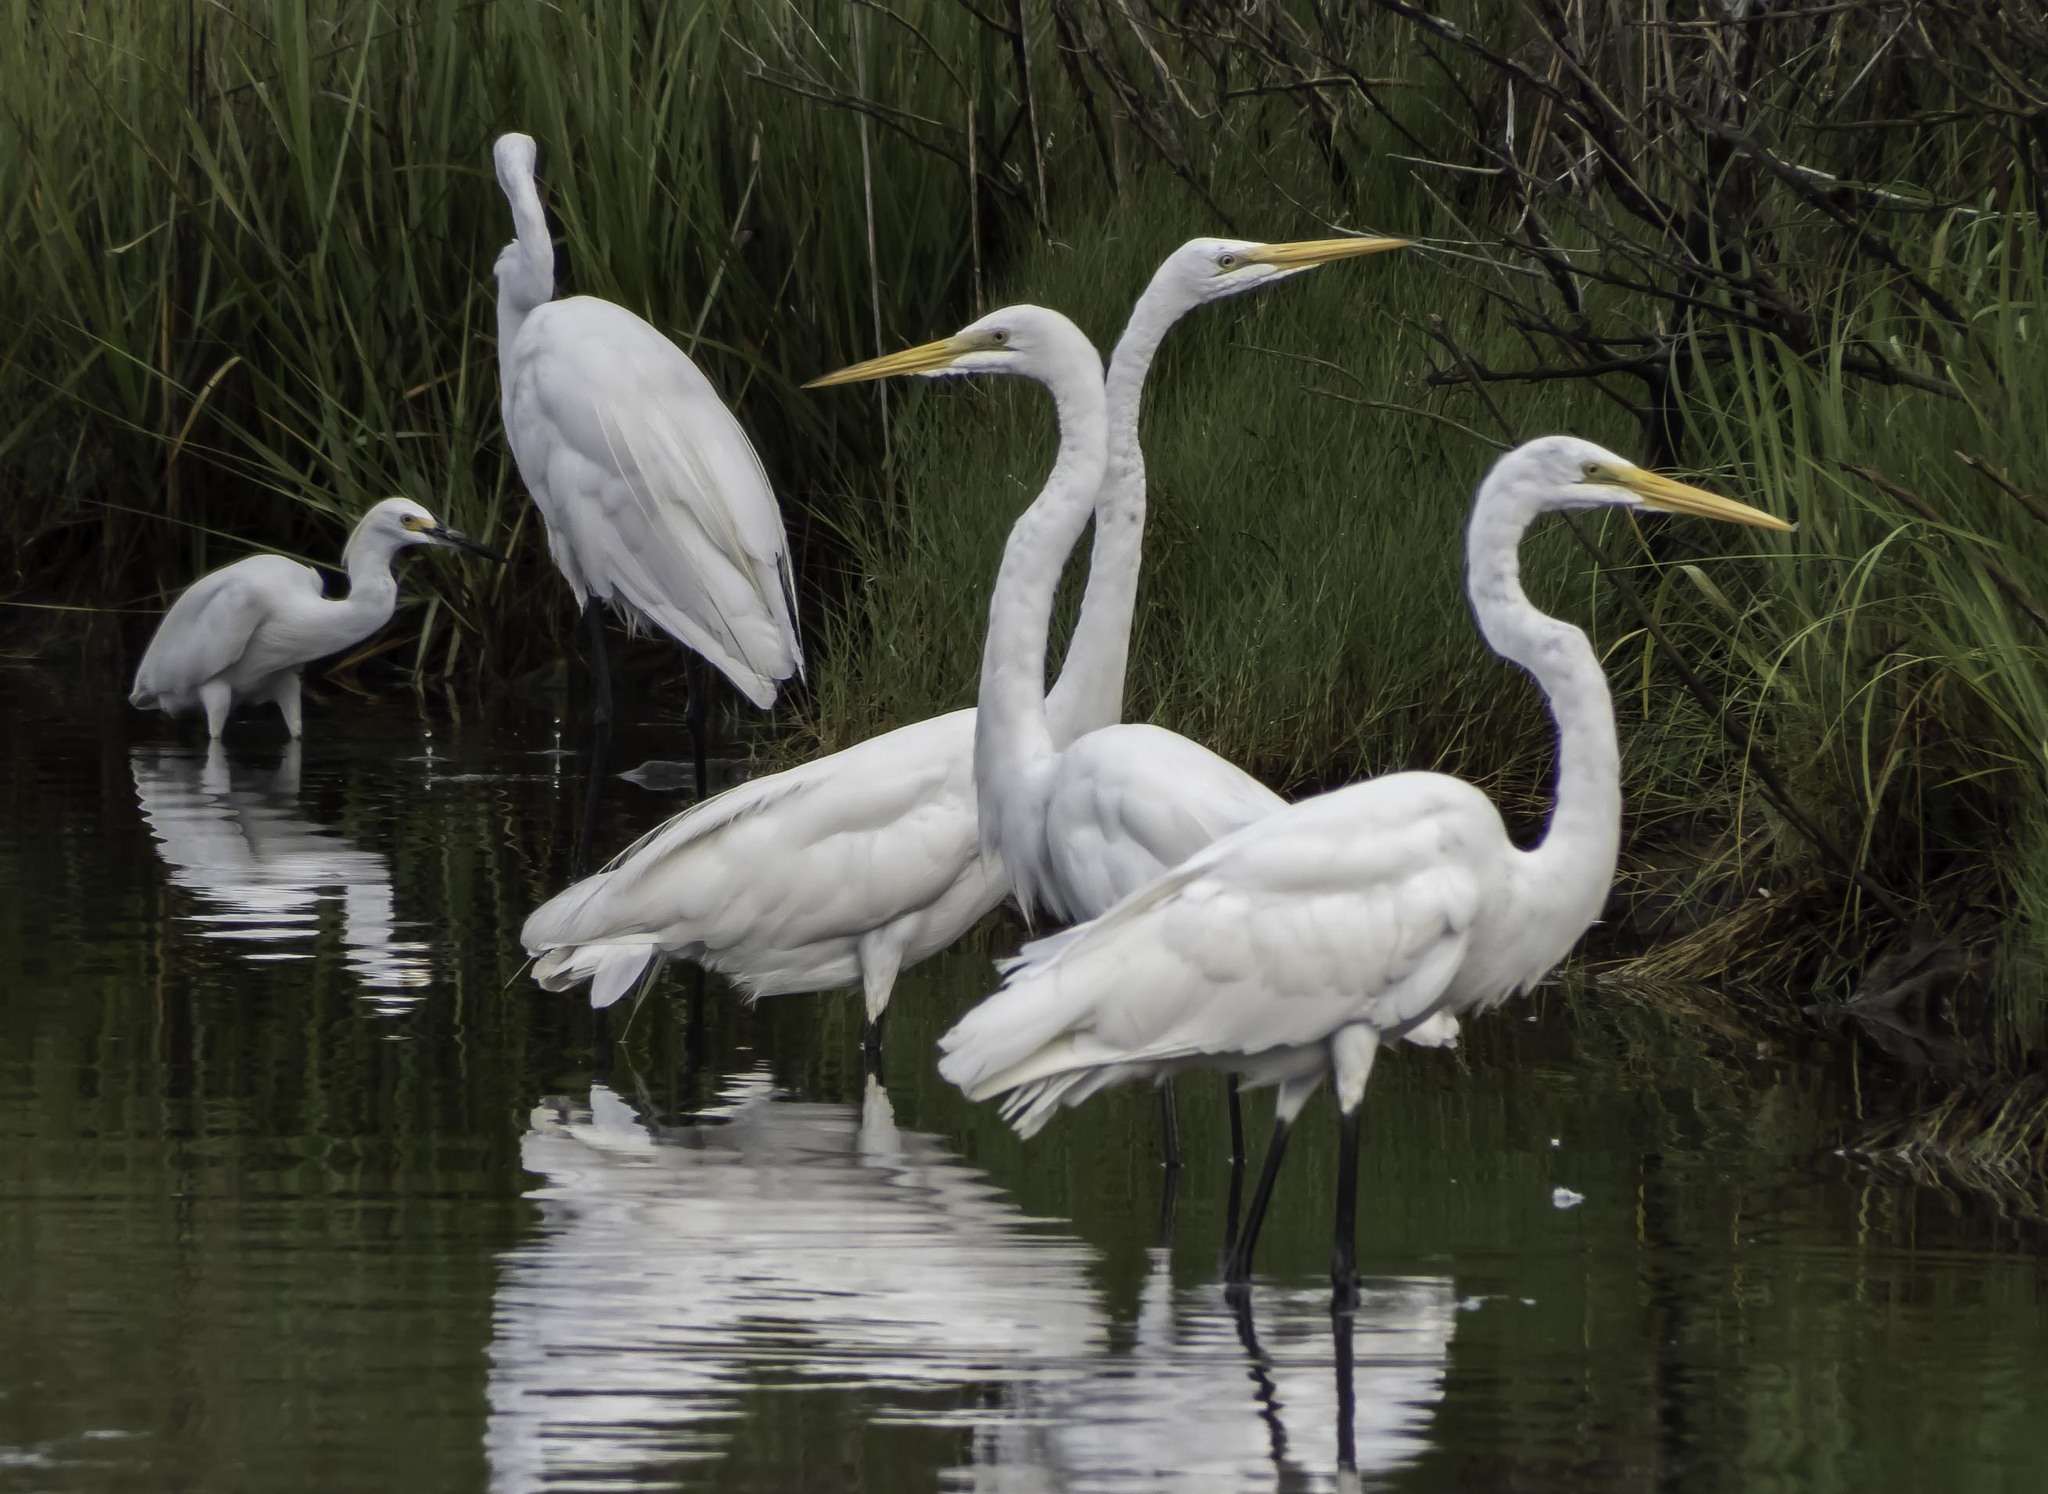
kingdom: Animalia
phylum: Chordata
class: Aves
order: Pelecaniformes
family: Ardeidae
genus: Ardea
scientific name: Ardea alba
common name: Great egret
